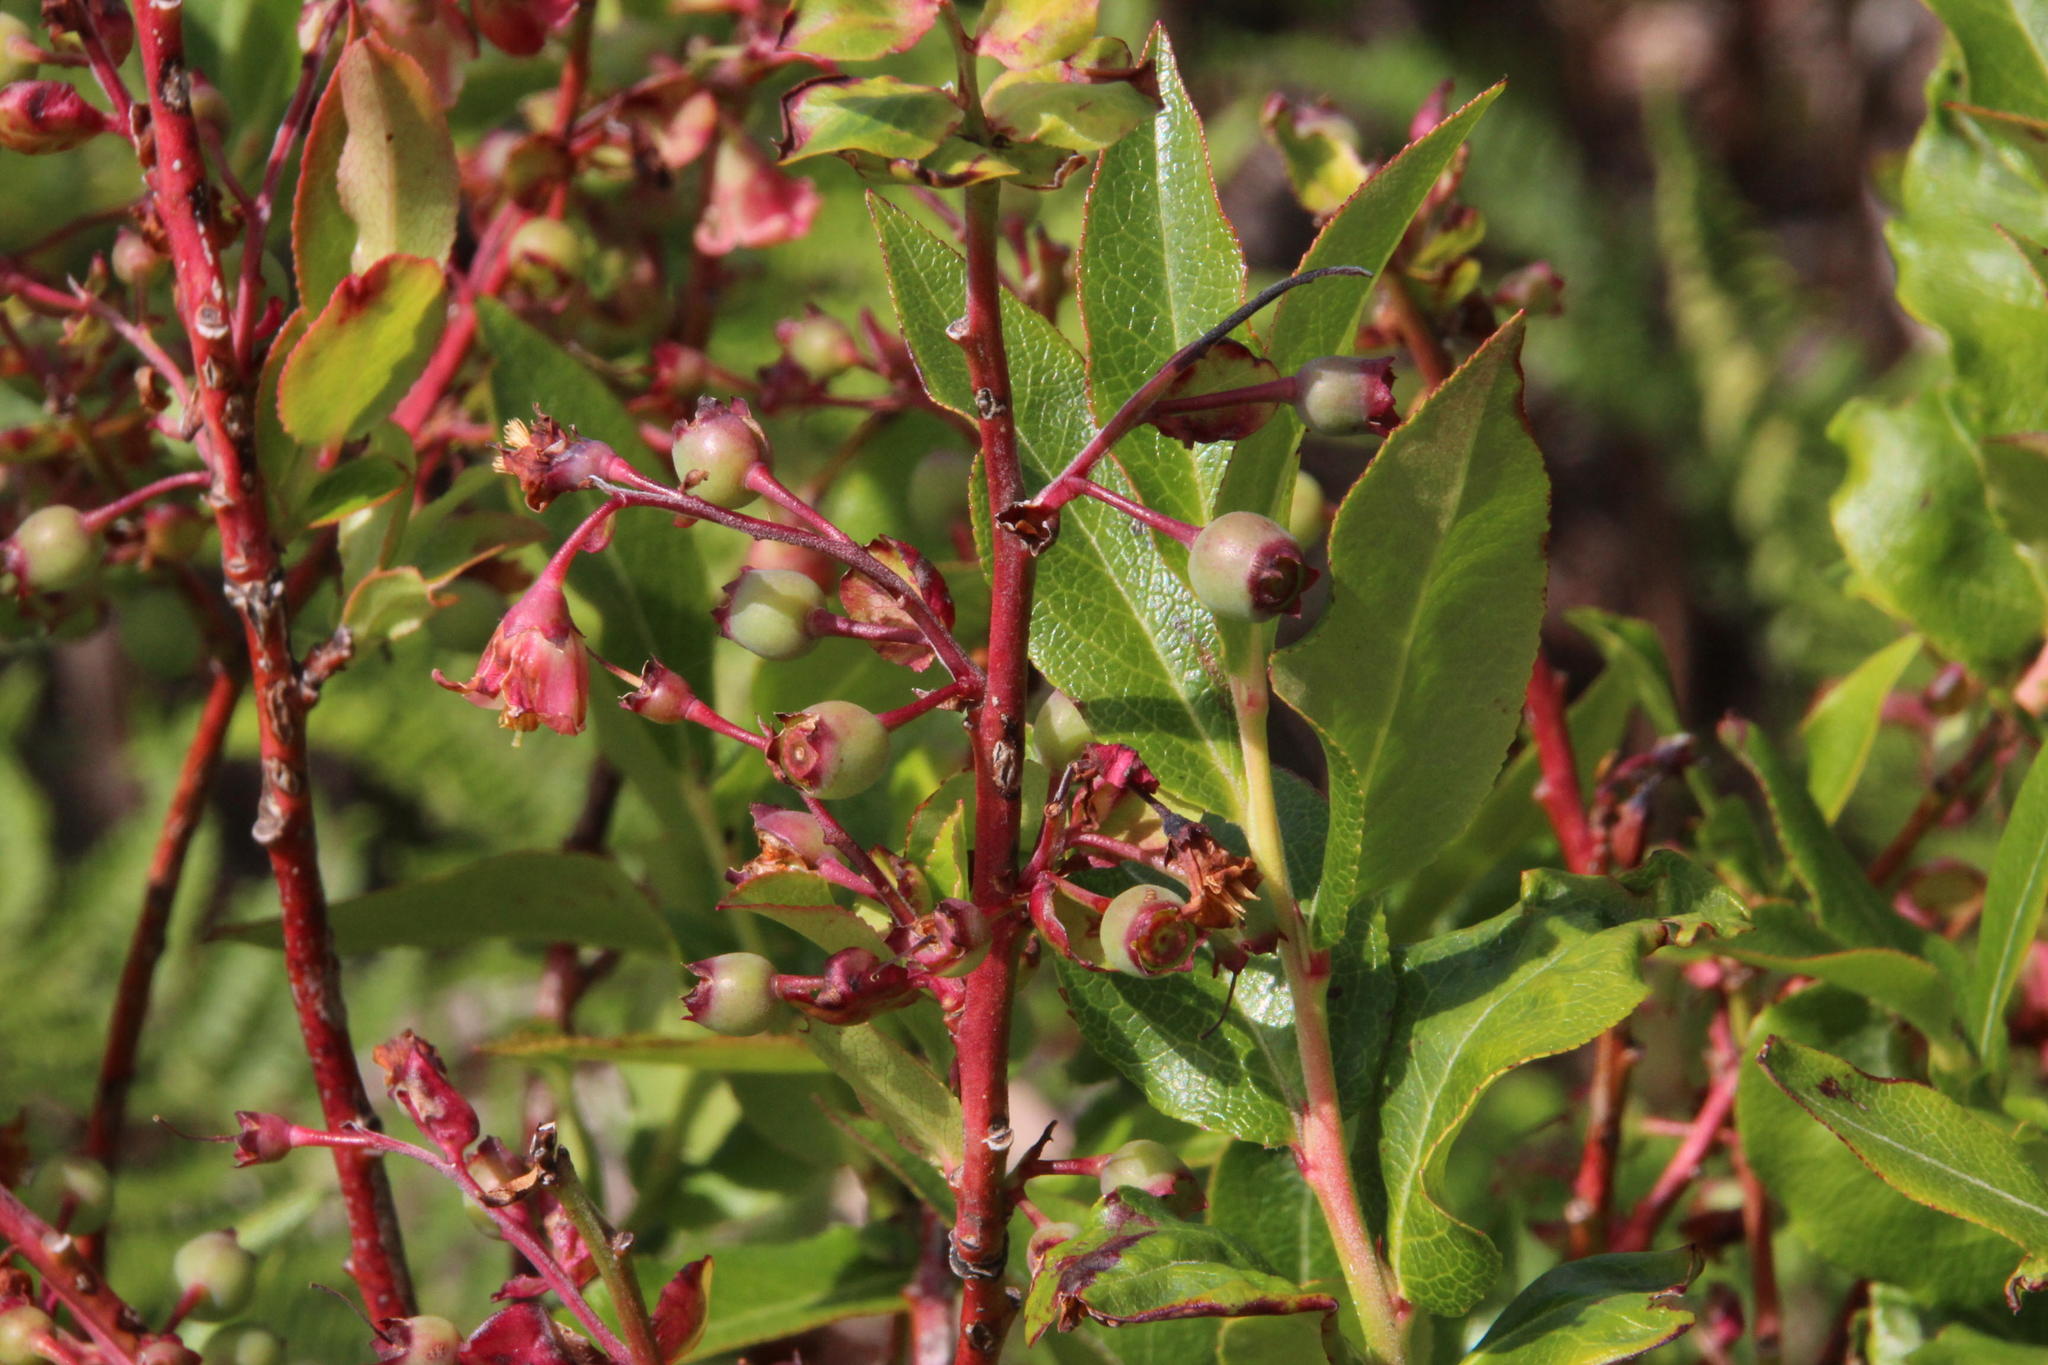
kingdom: Plantae
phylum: Tracheophyta
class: Magnoliopsida
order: Ericales
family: Ericaceae
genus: Vaccinium
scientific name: Vaccinium padifolium
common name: Madeiran blueberry
